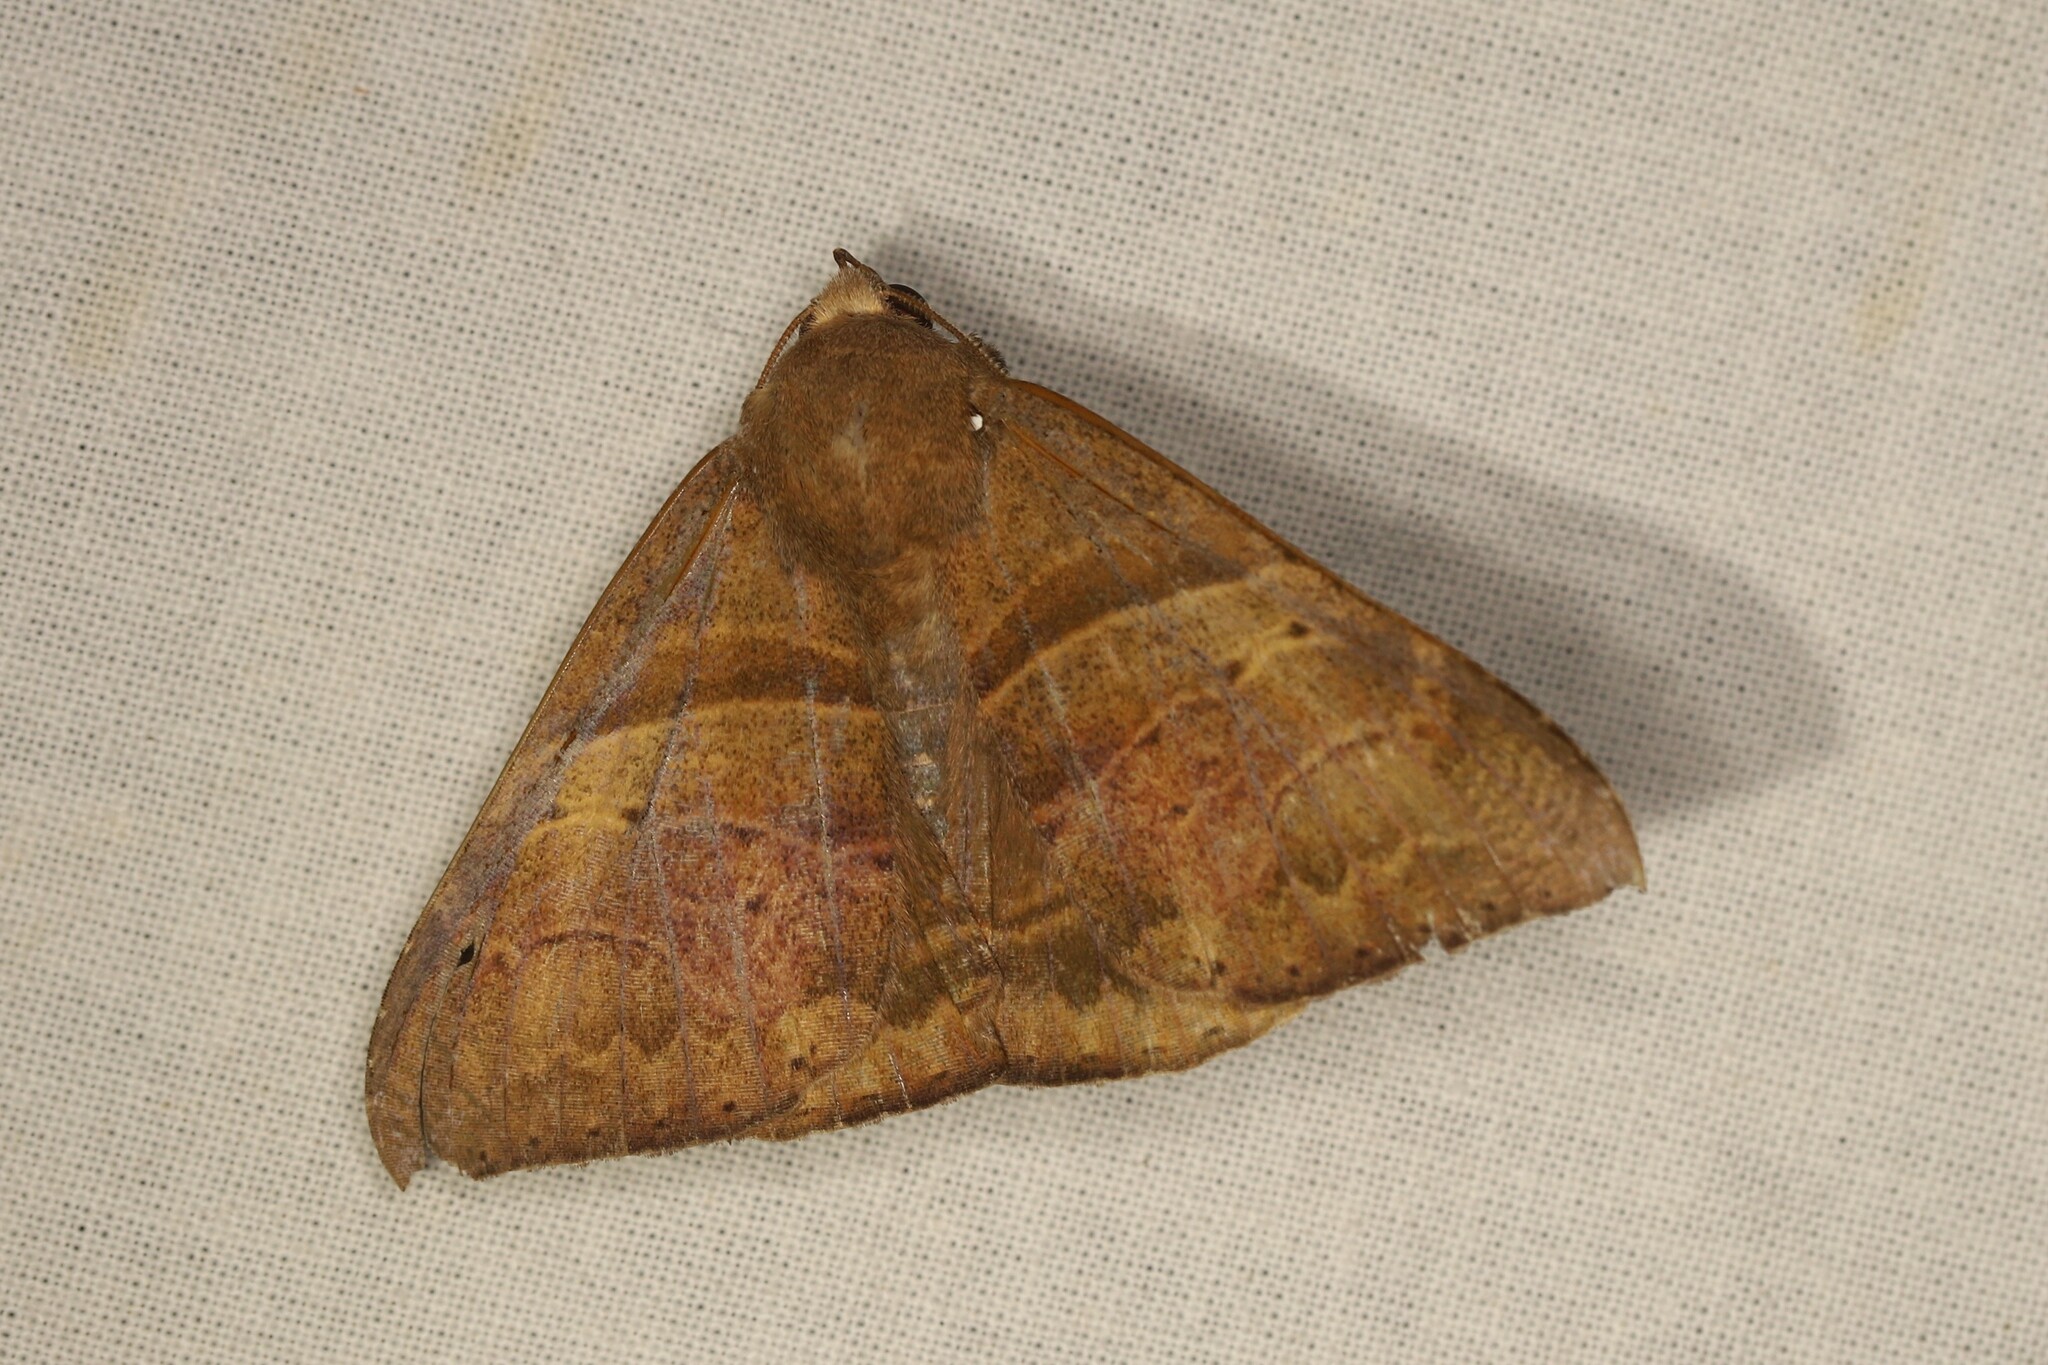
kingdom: Animalia
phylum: Arthropoda
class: Insecta
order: Lepidoptera
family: Erebidae
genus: Neophisma
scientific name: Neophisma
